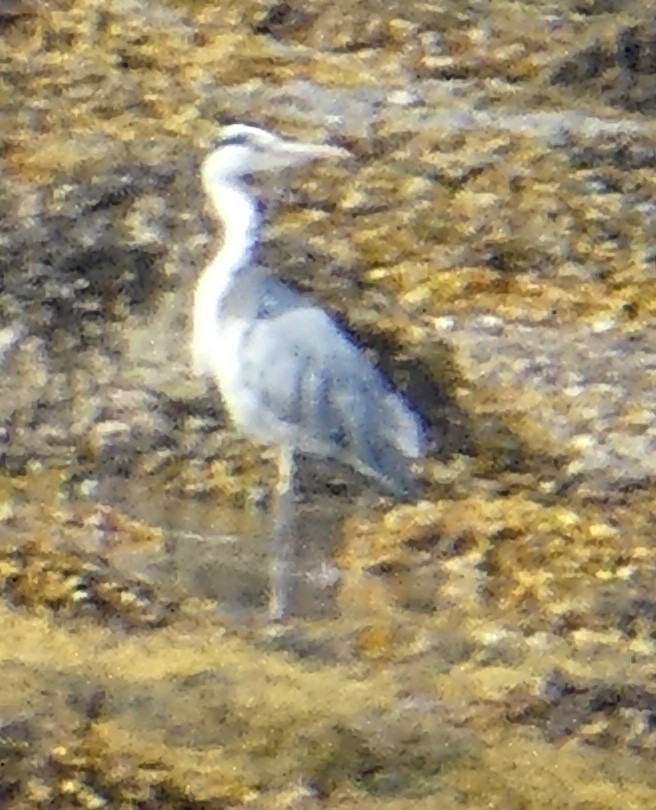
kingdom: Animalia
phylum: Chordata
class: Aves
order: Pelecaniformes
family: Ardeidae
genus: Ardea
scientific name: Ardea cinerea
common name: Grey heron
